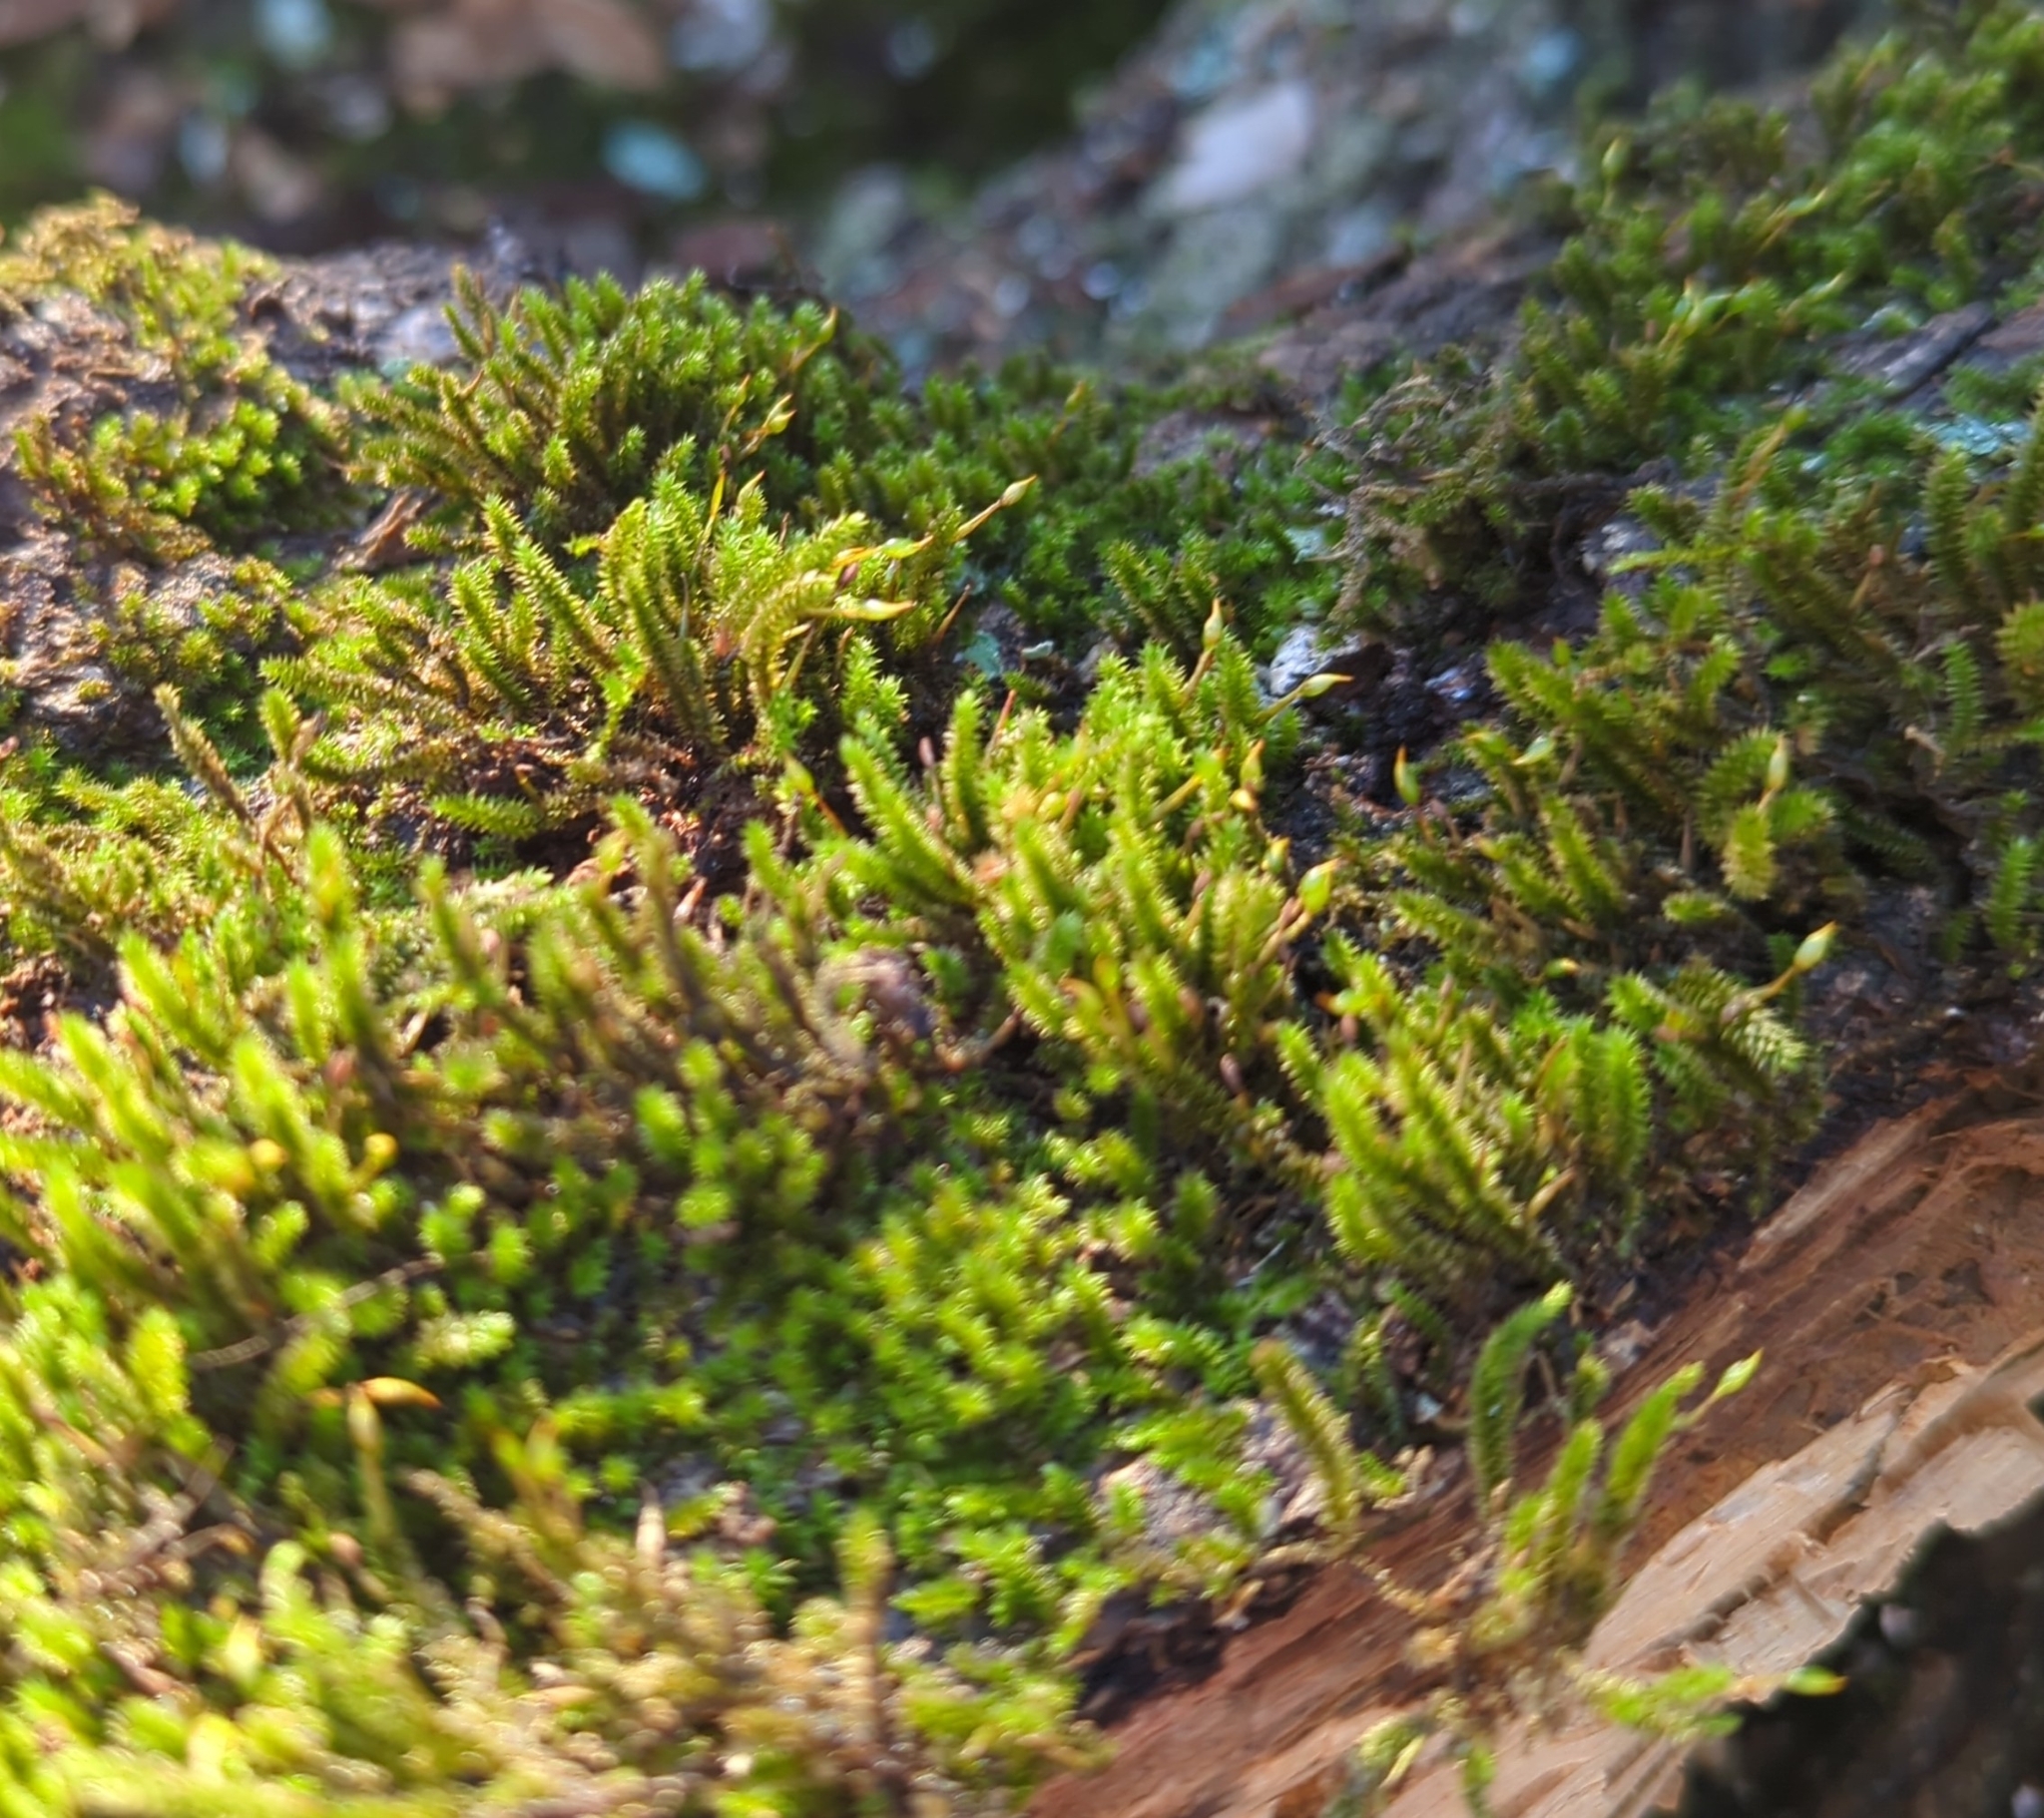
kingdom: Plantae
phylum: Bryophyta
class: Bryopsida
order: Hypnales
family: Leucodontaceae
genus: Leucodon
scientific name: Leucodon julaceus
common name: Smooth hook moss
